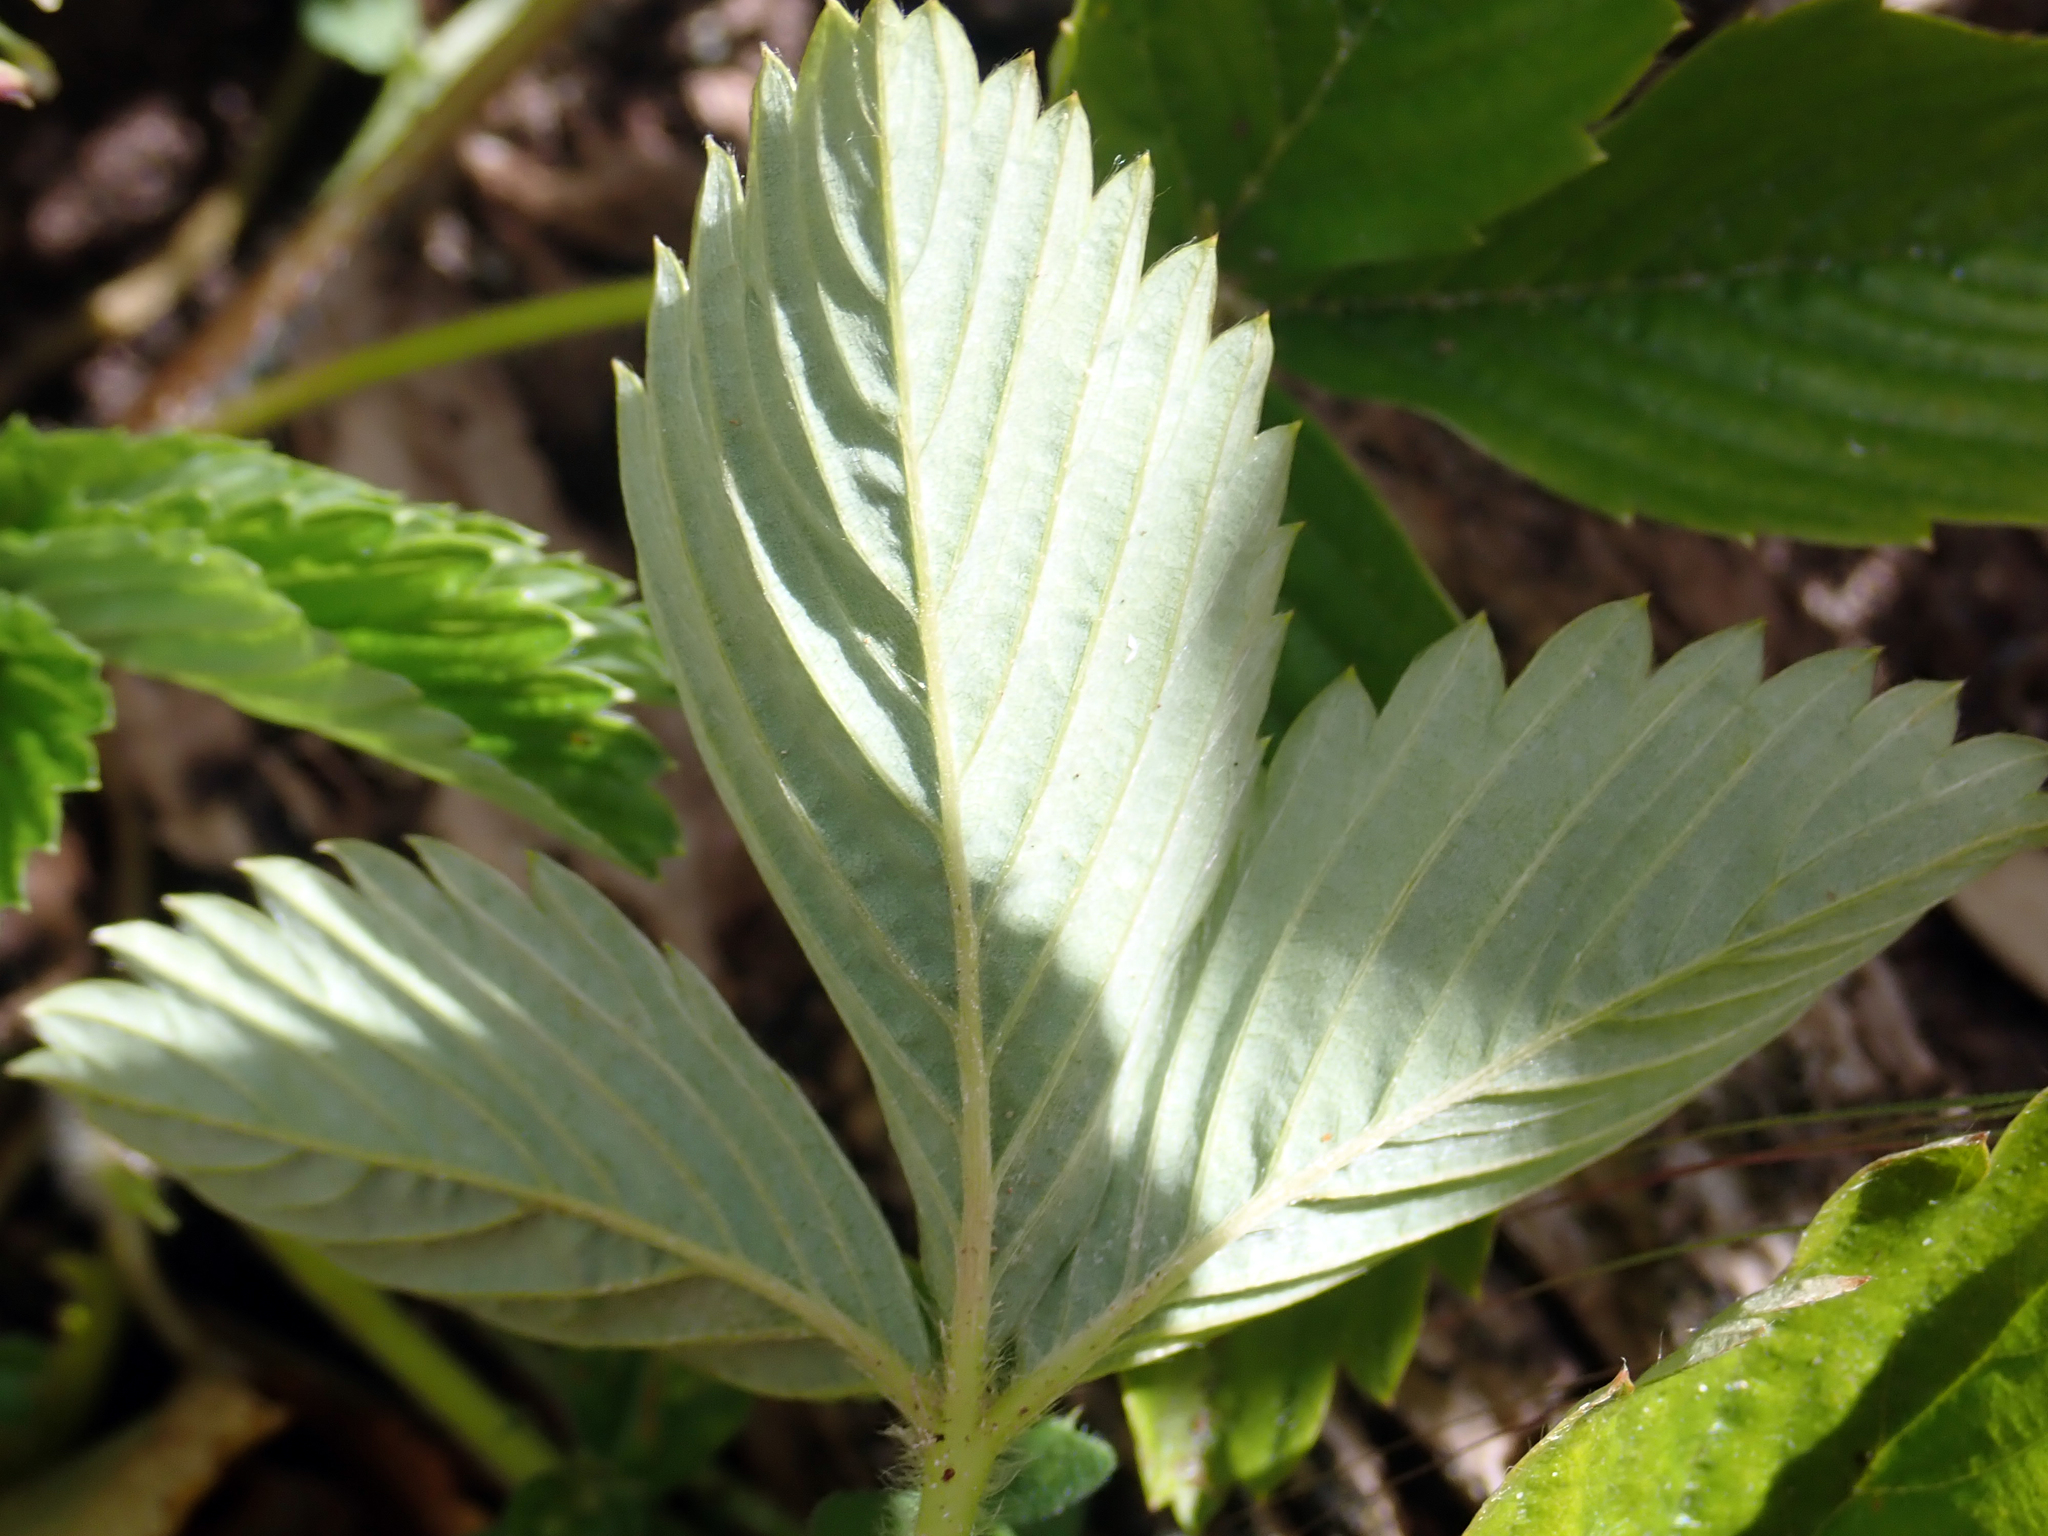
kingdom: Plantae
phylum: Tracheophyta
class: Magnoliopsida
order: Rosales
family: Rosaceae
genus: Fragaria
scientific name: Fragaria ananassa
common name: Garden strawberry
